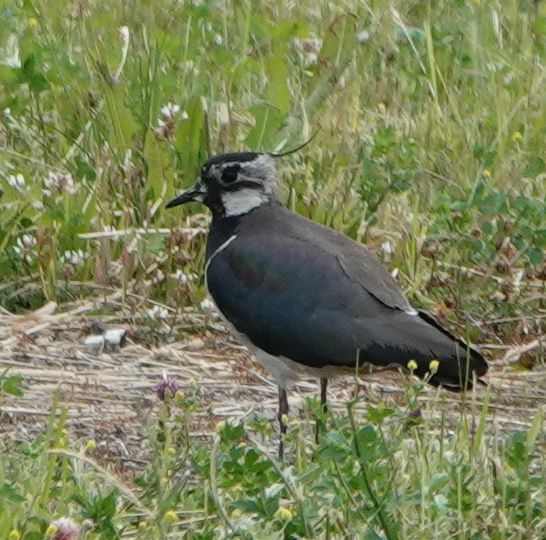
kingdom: Animalia
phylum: Chordata
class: Aves
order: Charadriiformes
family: Charadriidae
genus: Vanellus
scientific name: Vanellus vanellus
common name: Northern lapwing
